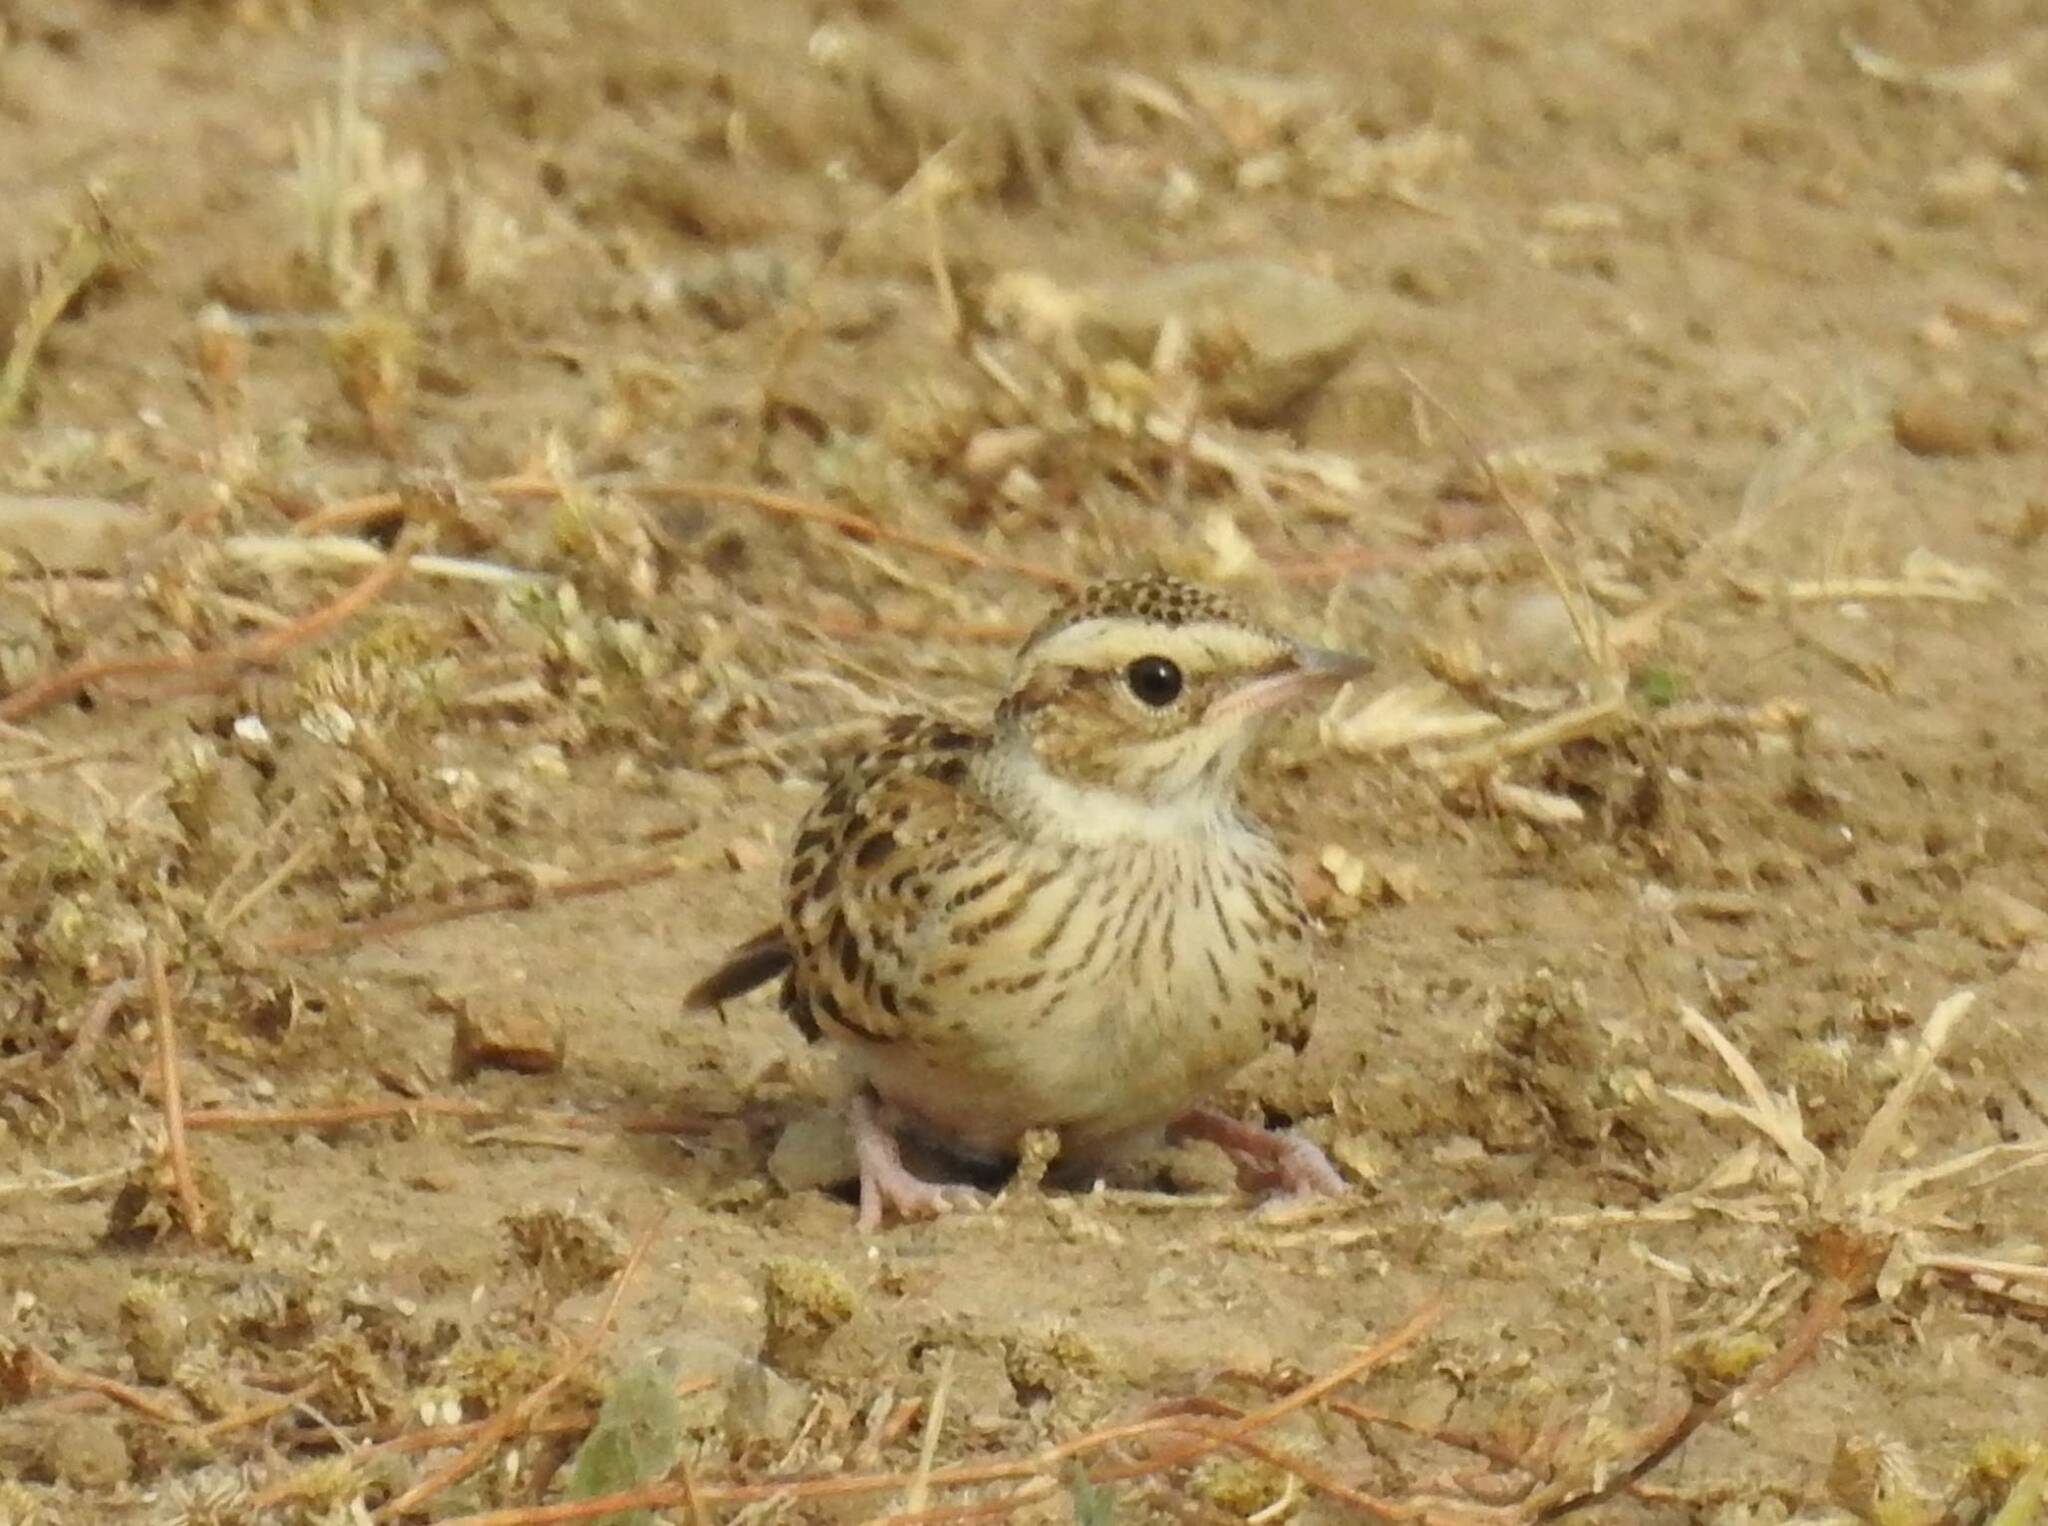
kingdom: Animalia
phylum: Chordata
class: Aves
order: Passeriformes
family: Alaudidae
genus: Lullula
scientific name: Lullula arborea
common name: Woodlark
